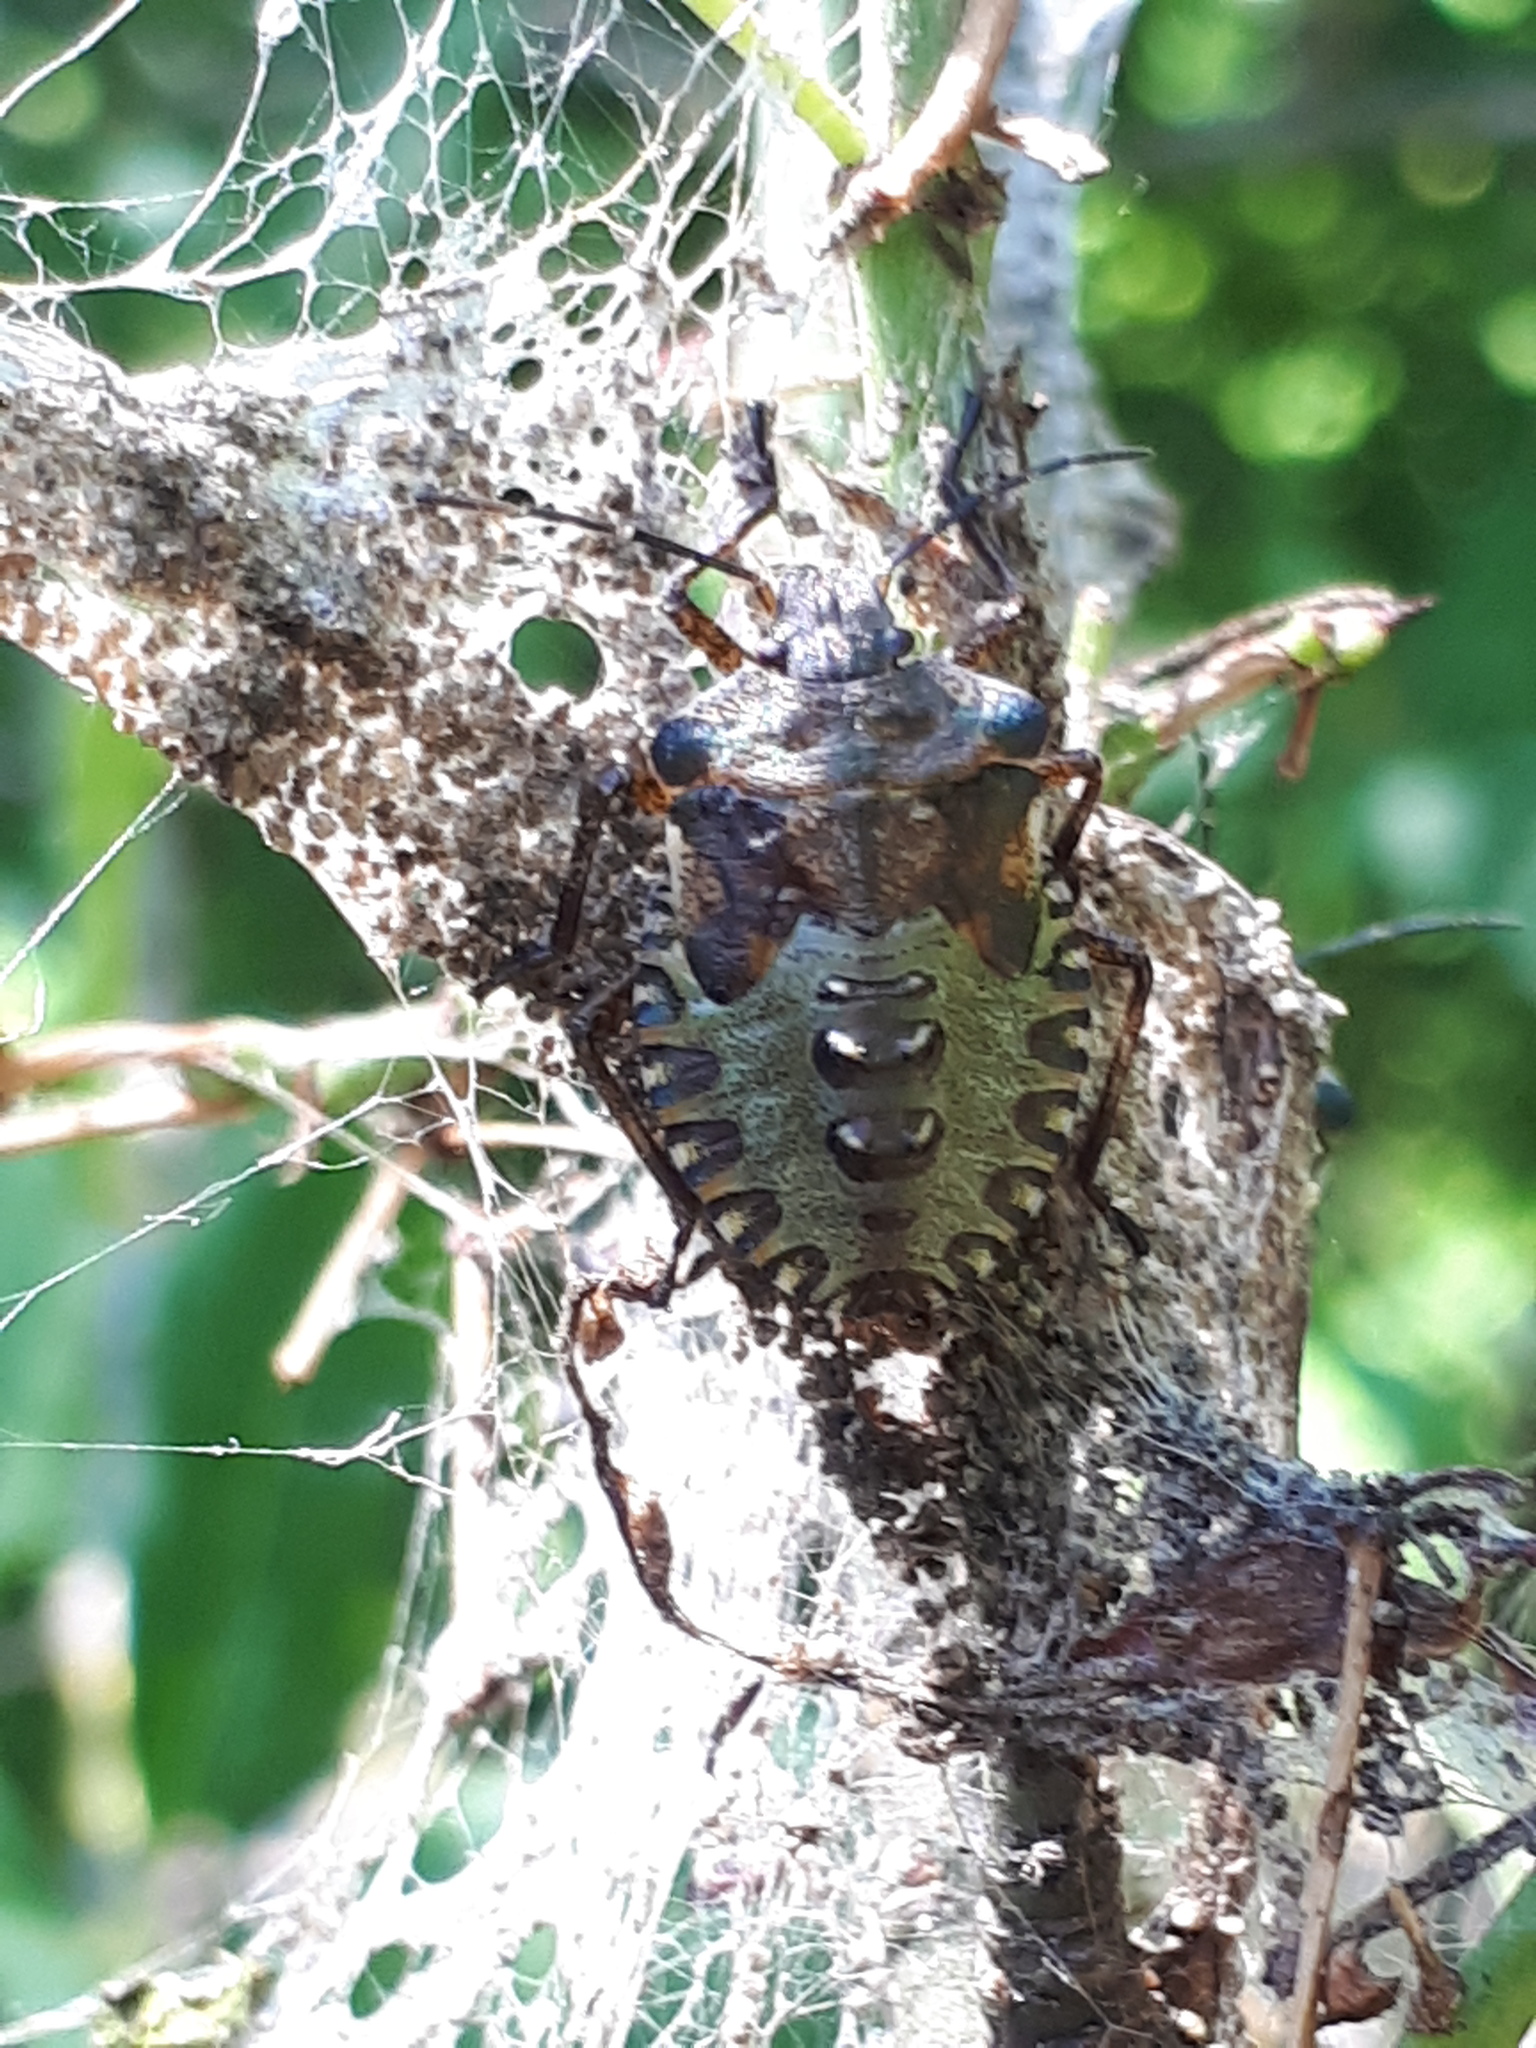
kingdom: Animalia
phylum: Arthropoda
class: Insecta
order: Hemiptera
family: Pentatomidae
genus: Pentatoma
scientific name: Pentatoma rufipes
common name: Forest bug
